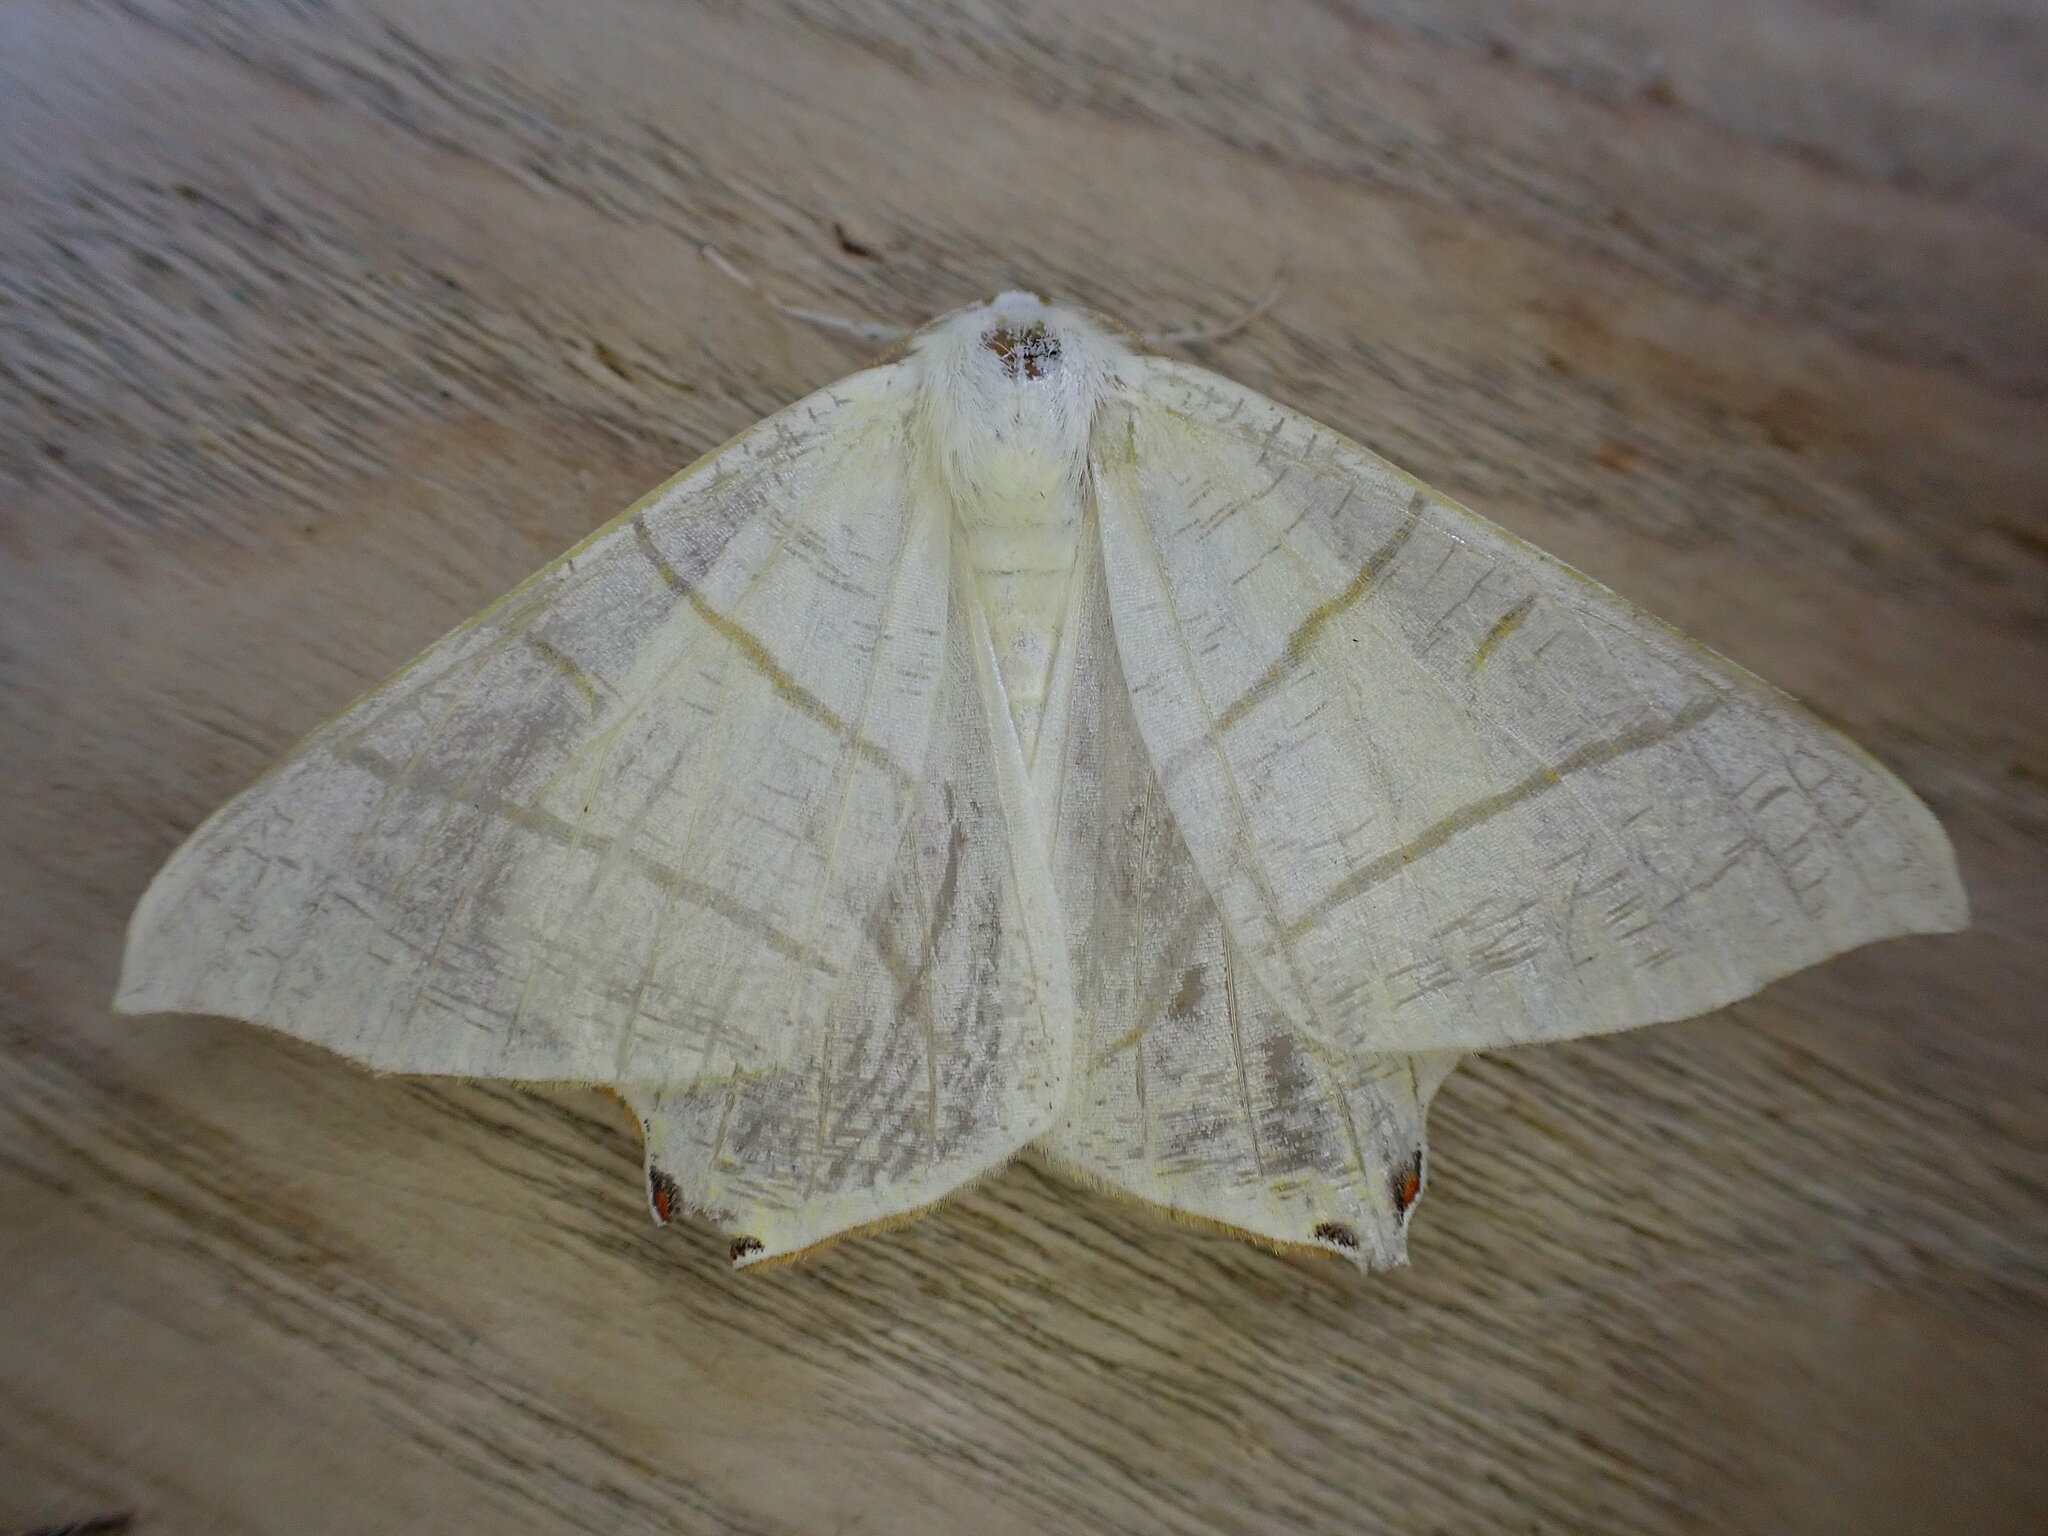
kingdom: Animalia
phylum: Arthropoda
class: Insecta
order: Lepidoptera
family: Geometridae
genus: Ourapteryx
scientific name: Ourapteryx sambucaria
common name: Swallow-tailed moth
